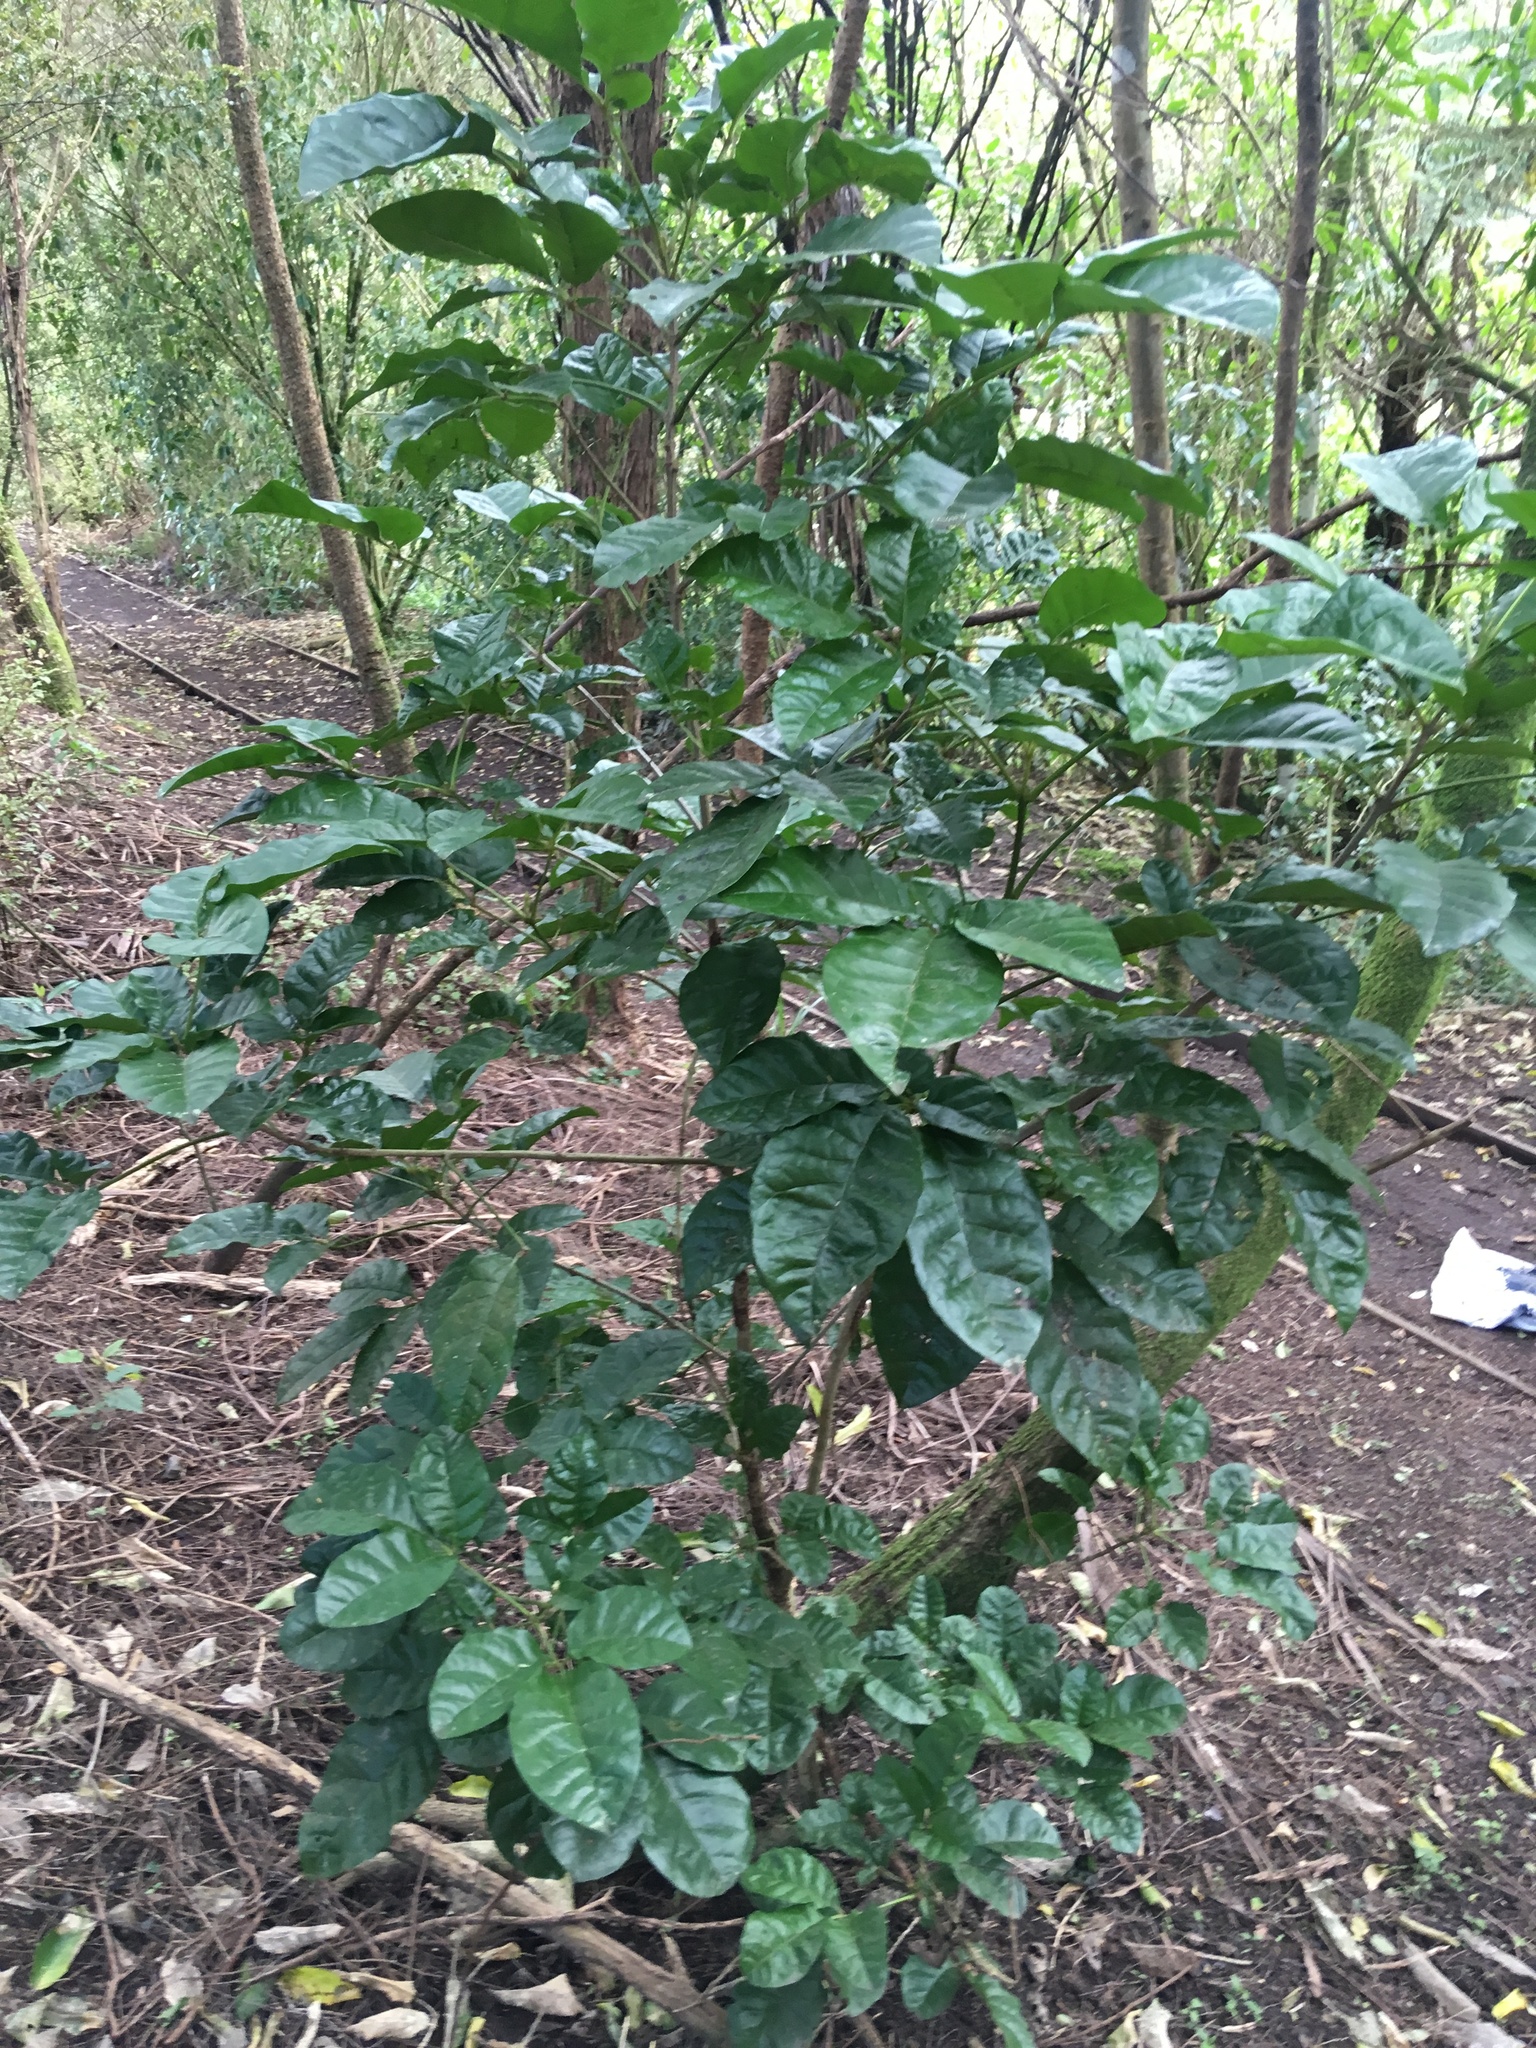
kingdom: Plantae
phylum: Tracheophyta
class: Magnoliopsida
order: Lamiales
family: Lamiaceae
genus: Vitex
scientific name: Vitex lucens
